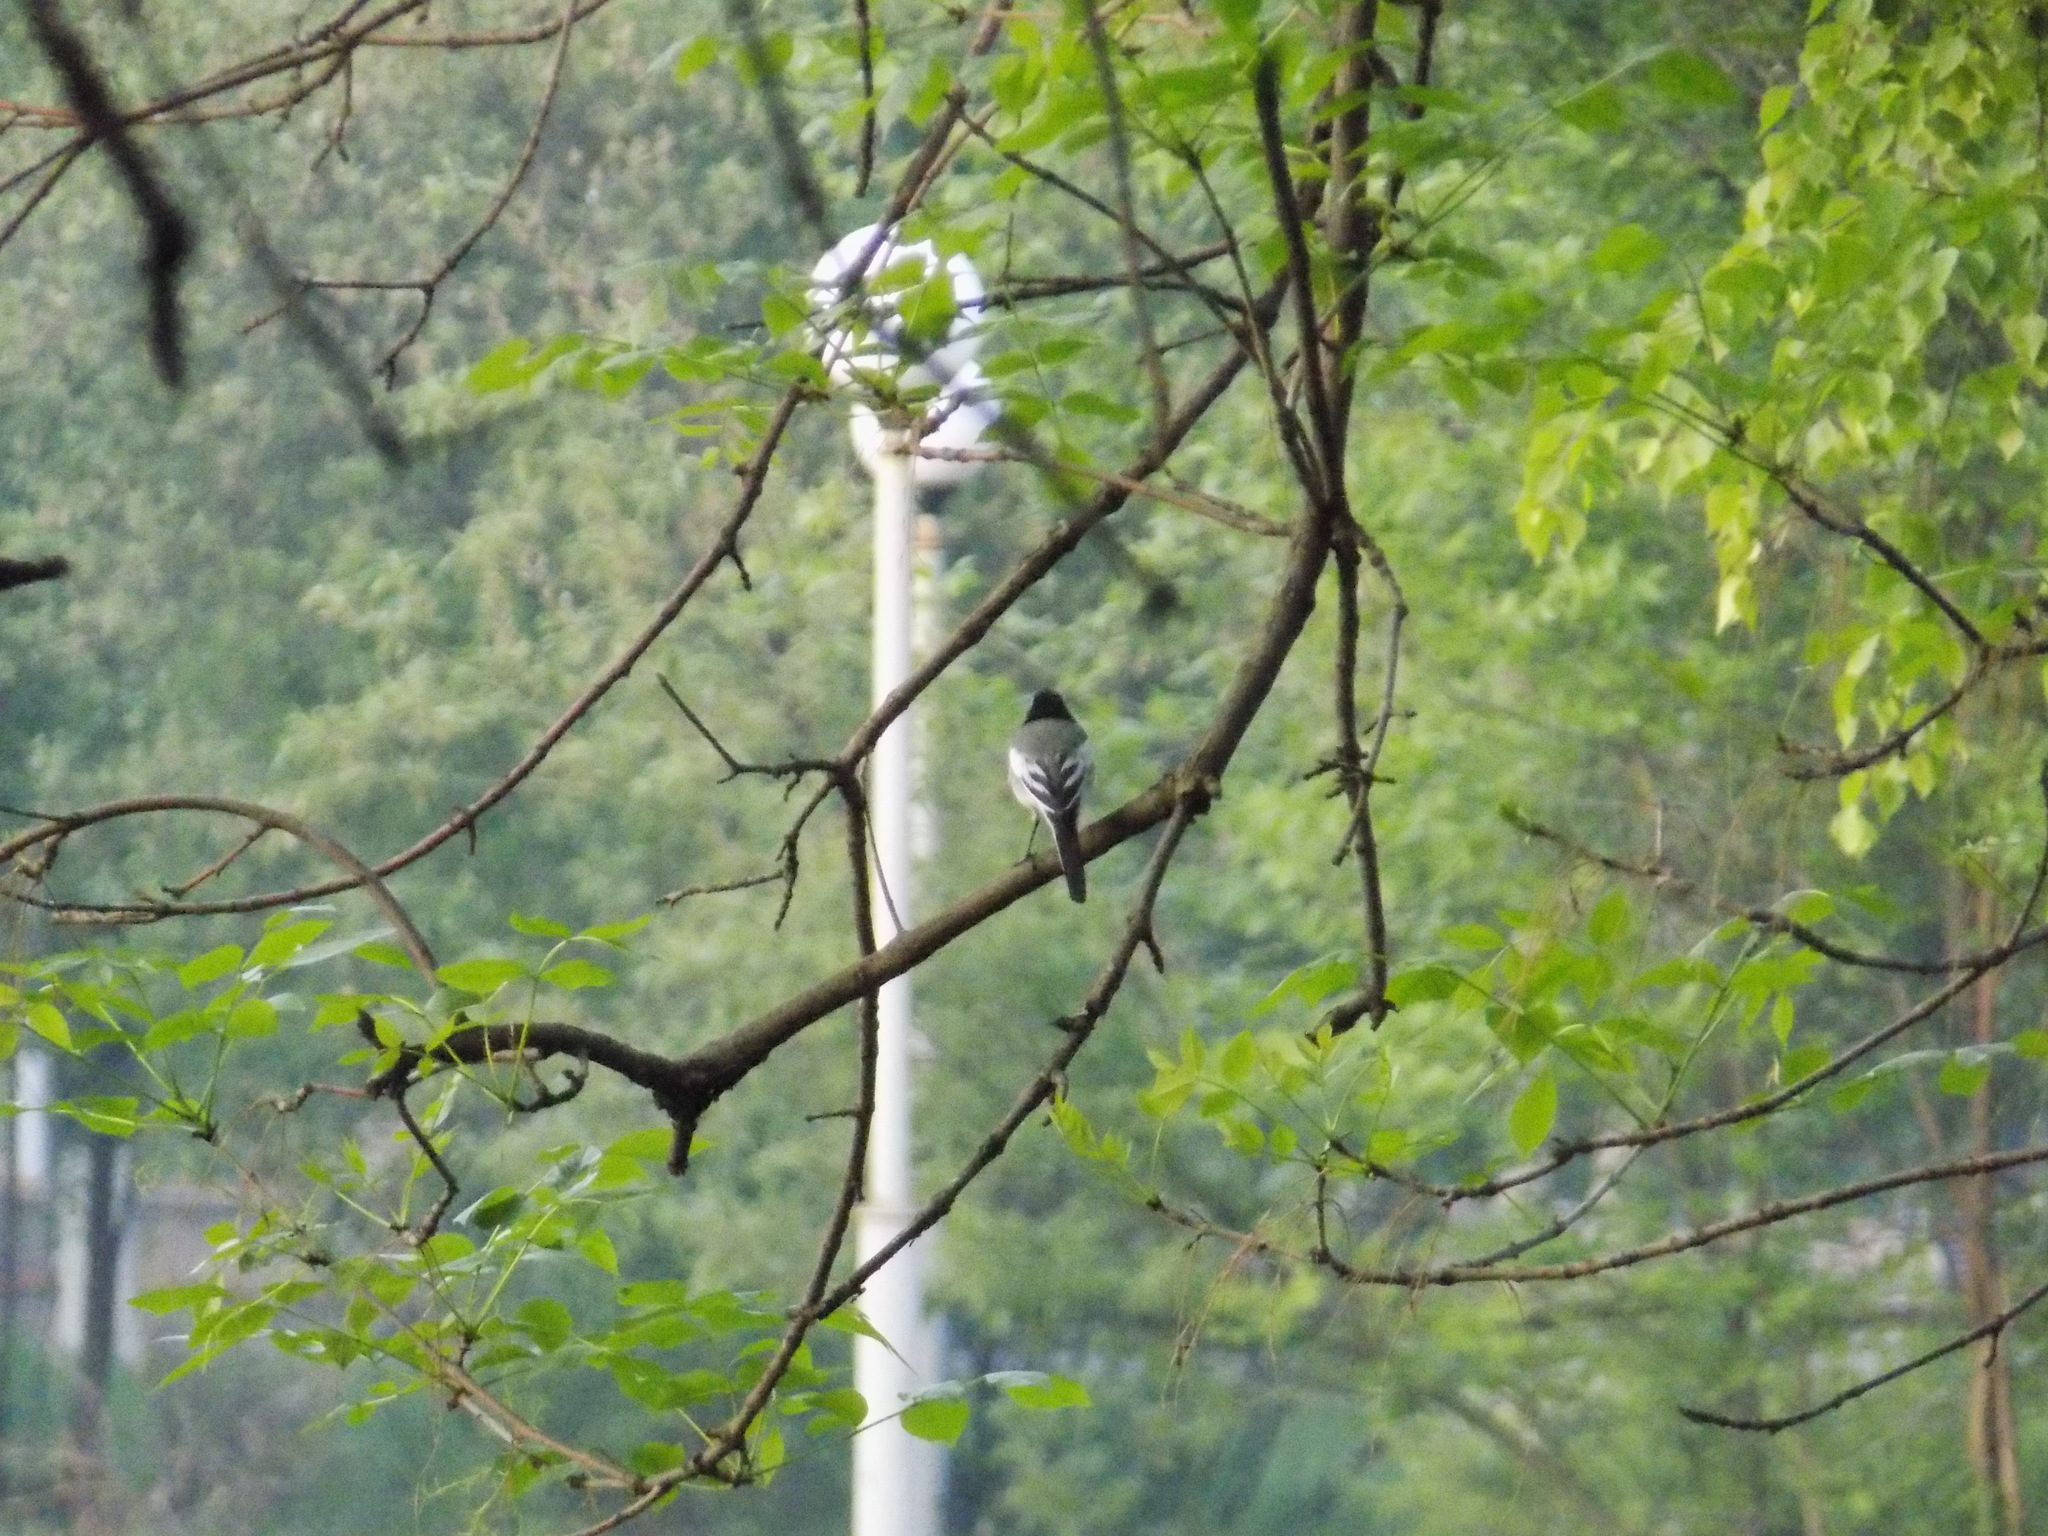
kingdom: Animalia
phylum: Chordata
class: Aves
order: Passeriformes
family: Motacillidae
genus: Motacilla
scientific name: Motacilla alba
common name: White wagtail
